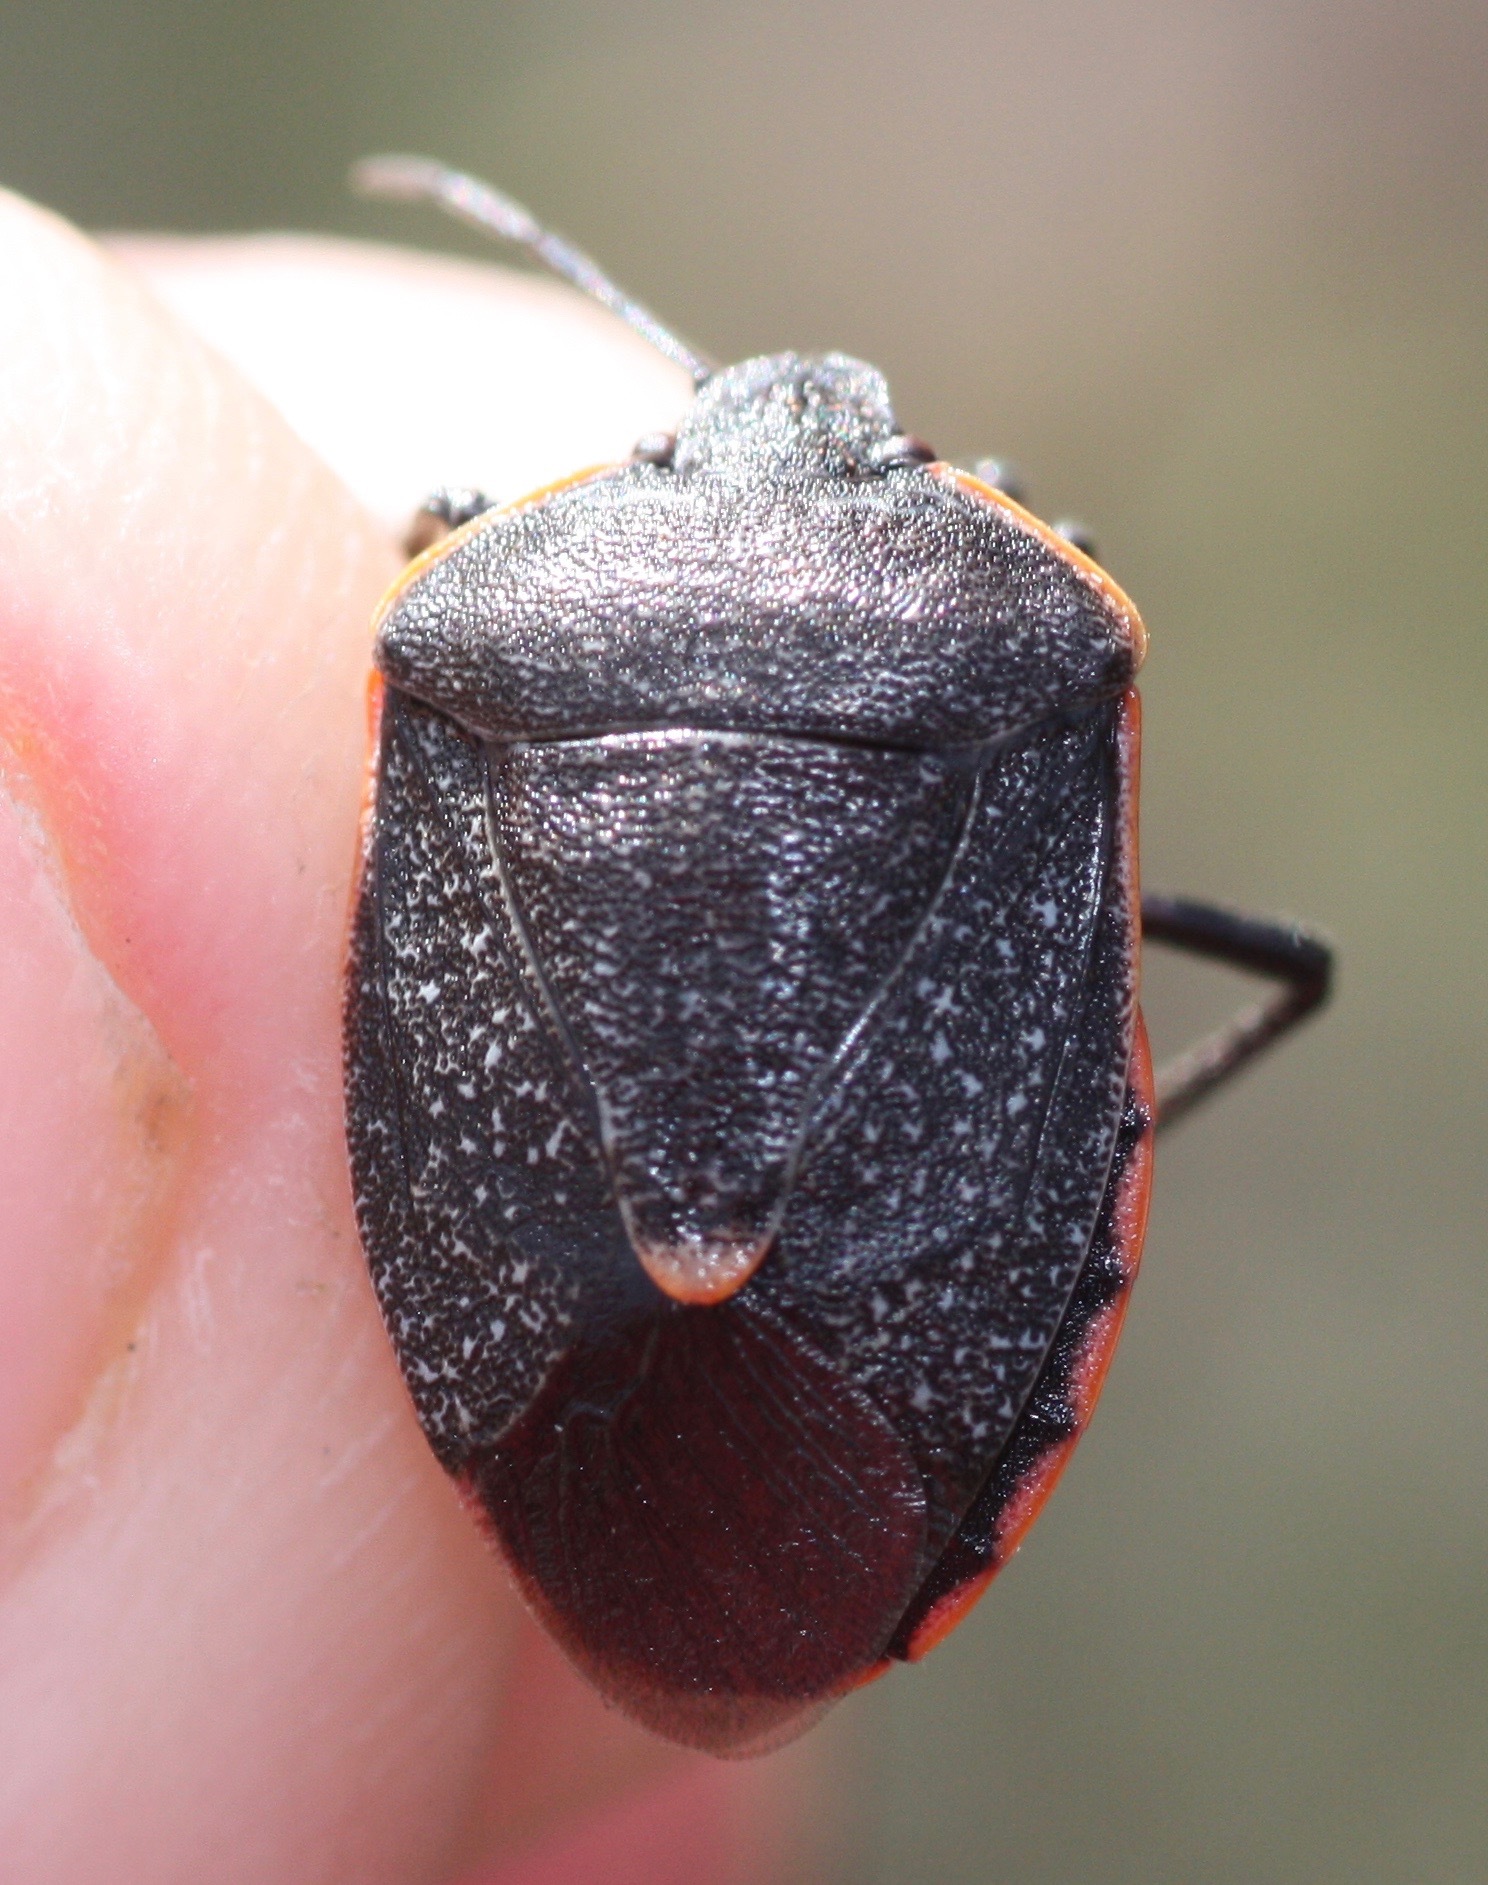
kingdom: Animalia
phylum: Arthropoda
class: Insecta
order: Hemiptera
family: Pentatomidae
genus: Chlorochroa
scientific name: Chlorochroa ligata
